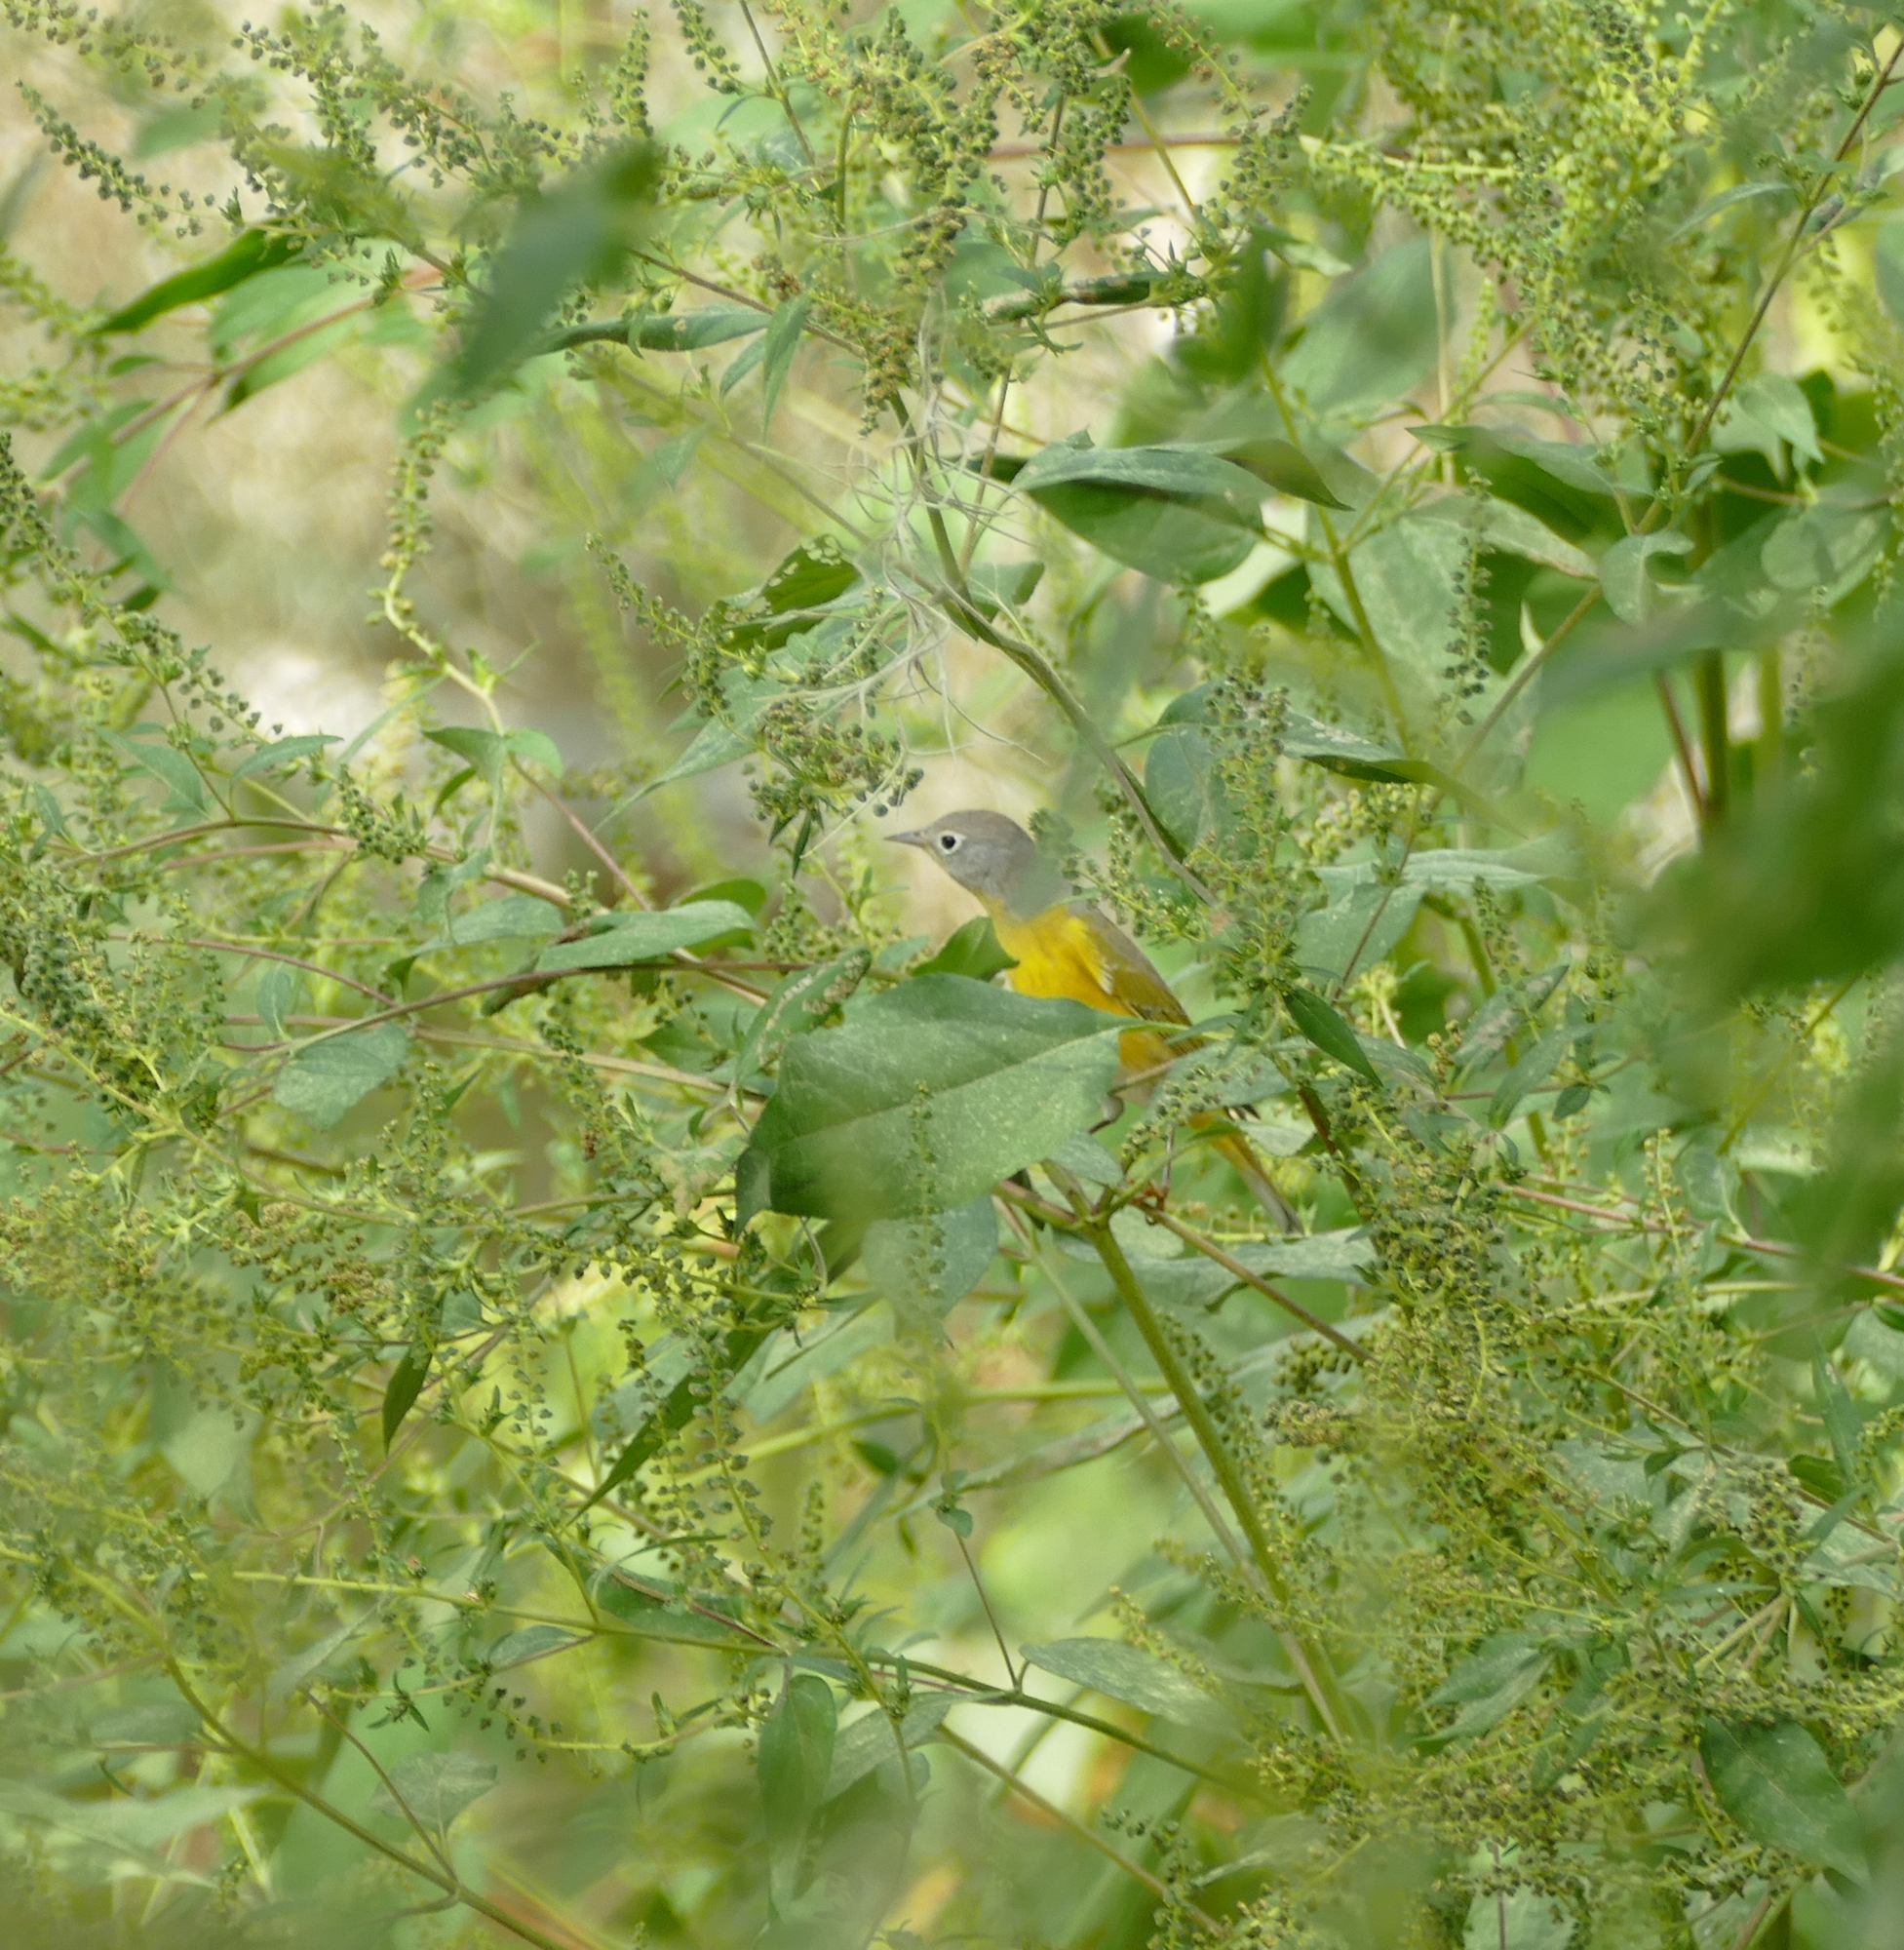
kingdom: Animalia
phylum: Chordata
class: Aves
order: Passeriformes
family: Parulidae
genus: Leiothlypis
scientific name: Leiothlypis ruficapilla
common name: Nashville warbler
